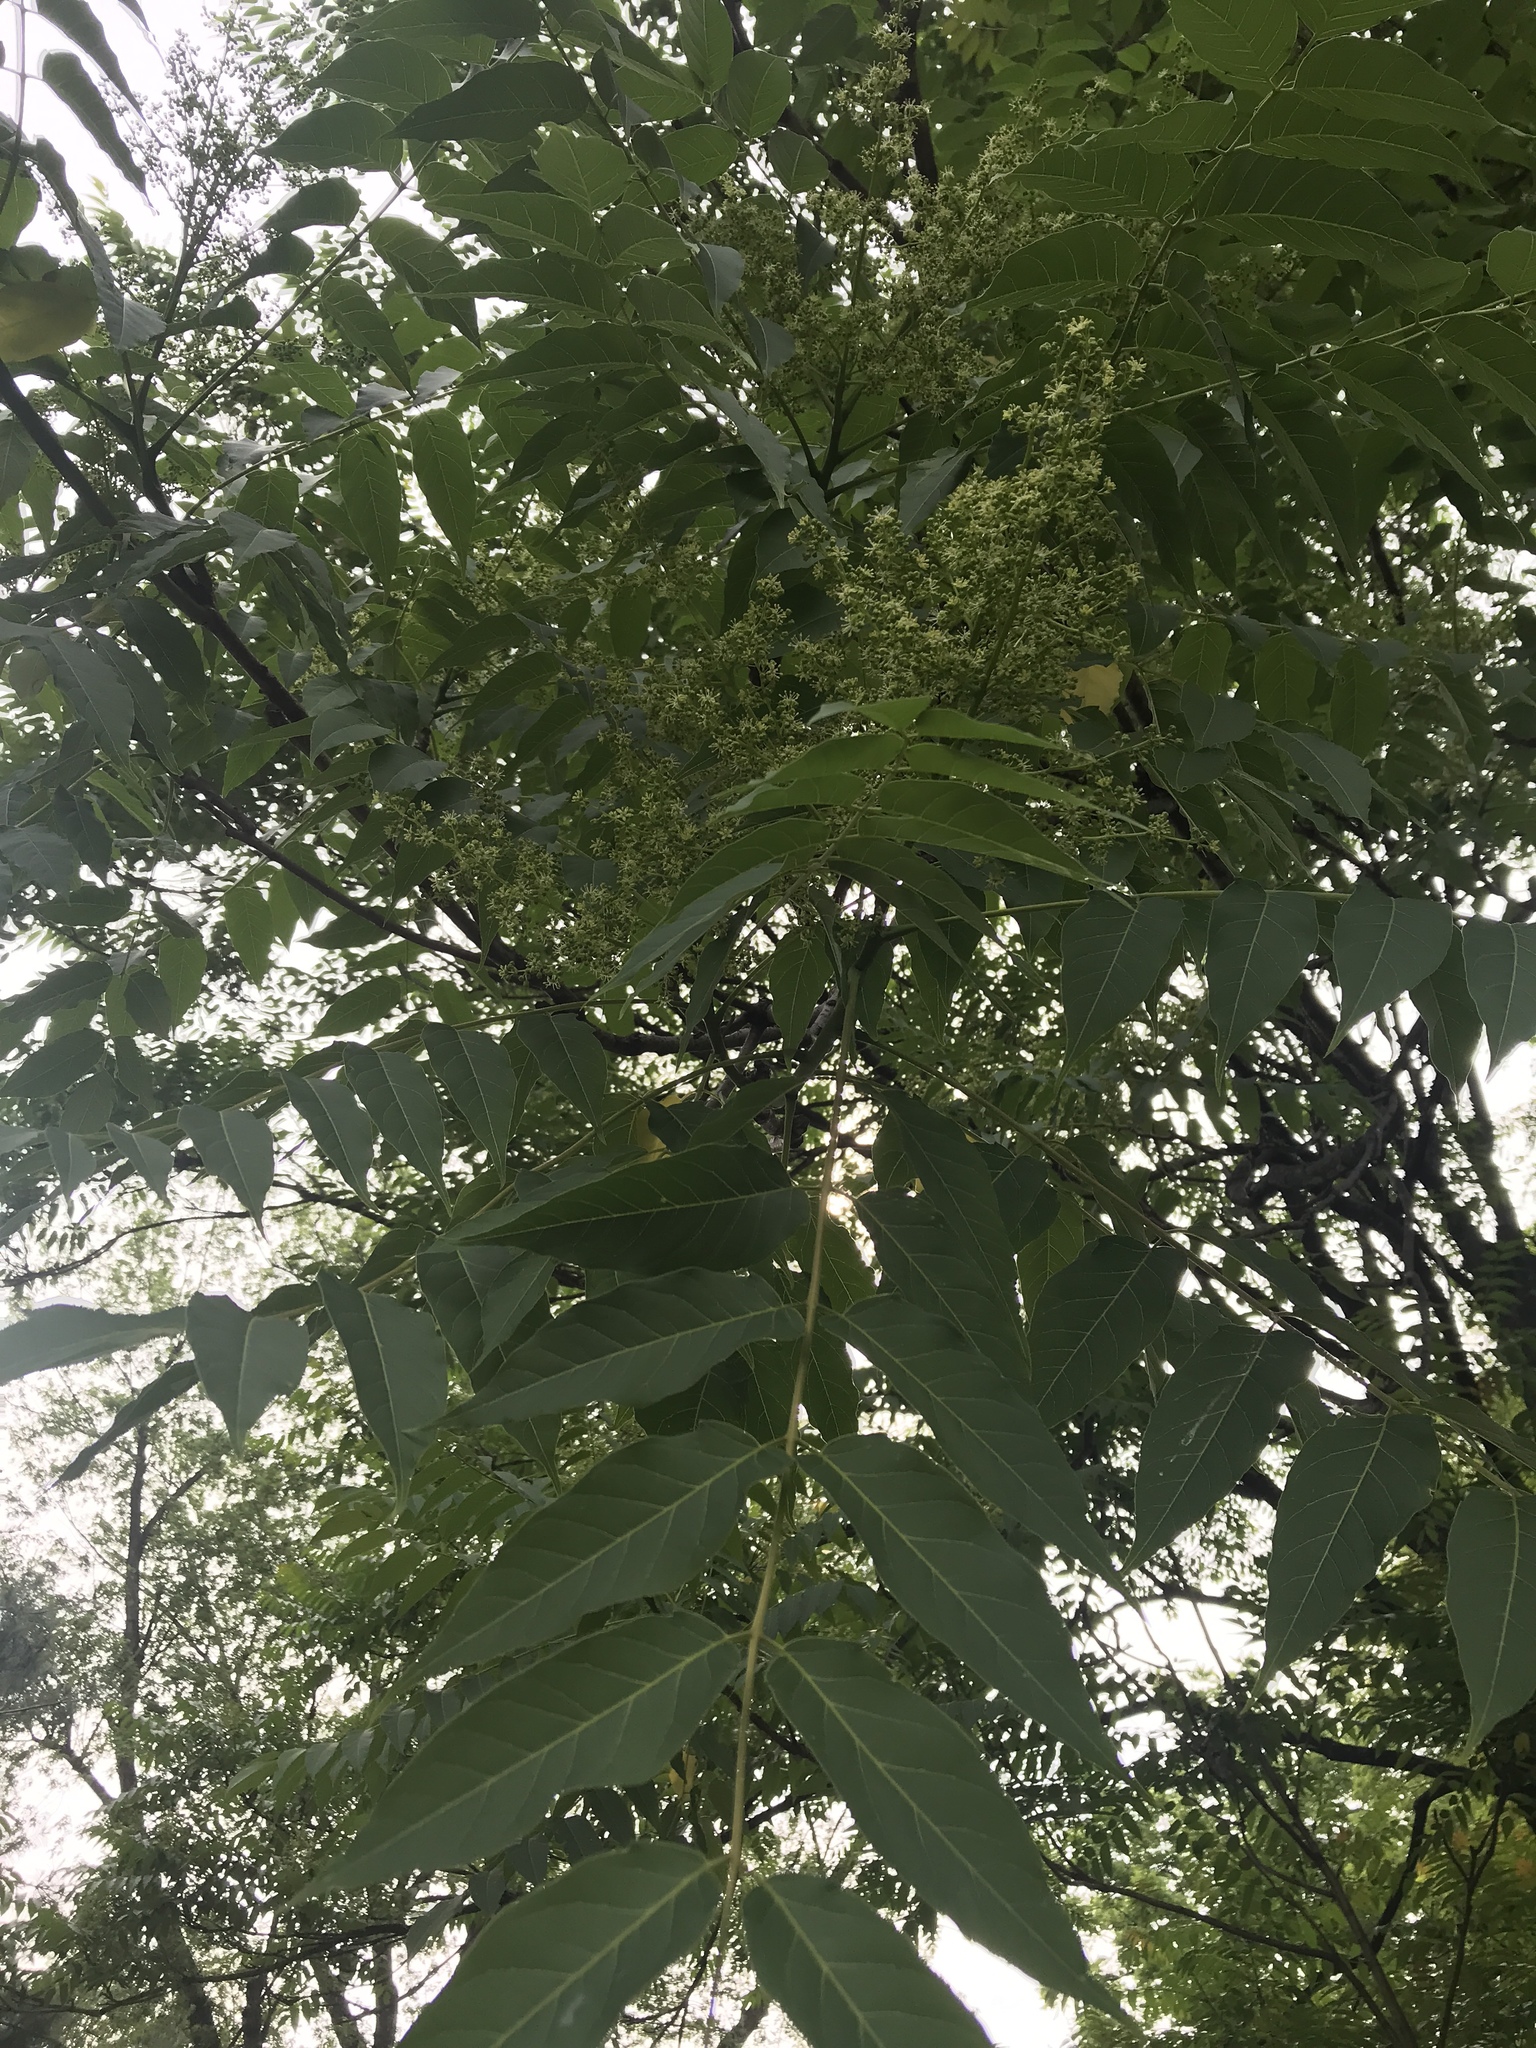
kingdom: Plantae
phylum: Tracheophyta
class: Magnoliopsida
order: Sapindales
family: Simaroubaceae
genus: Ailanthus
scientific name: Ailanthus altissima
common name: Tree-of-heaven
